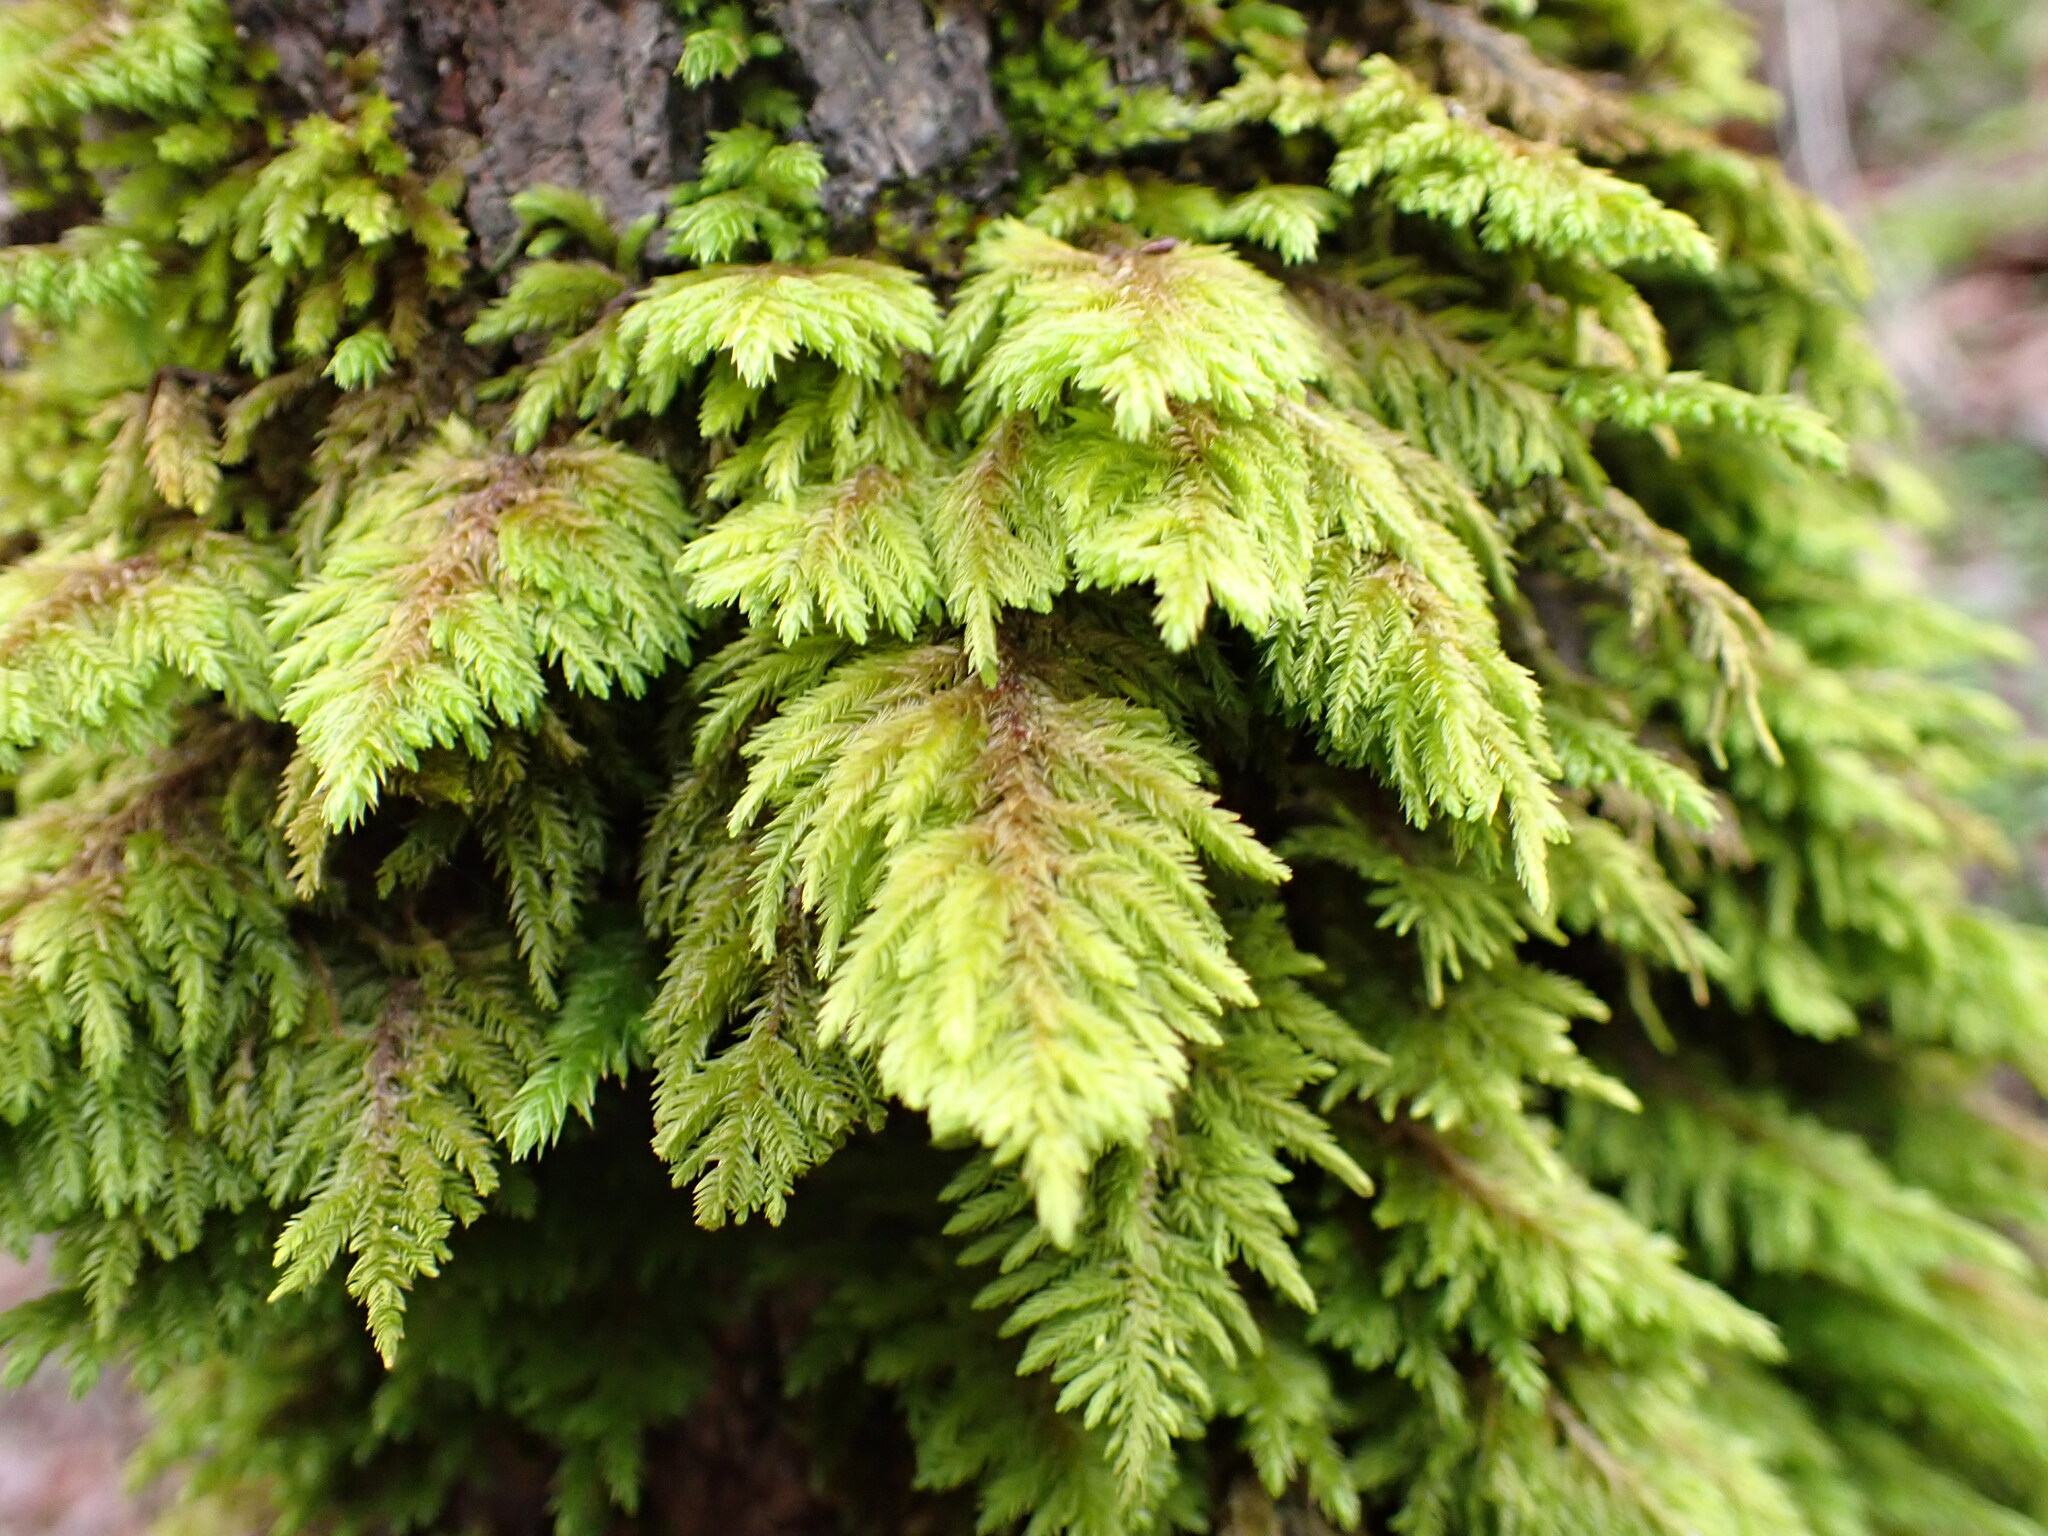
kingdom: Plantae
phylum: Bryophyta
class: Bryopsida
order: Hypnales
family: Cryphaeaceae
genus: Dendroalsia
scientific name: Dendroalsia abietina
